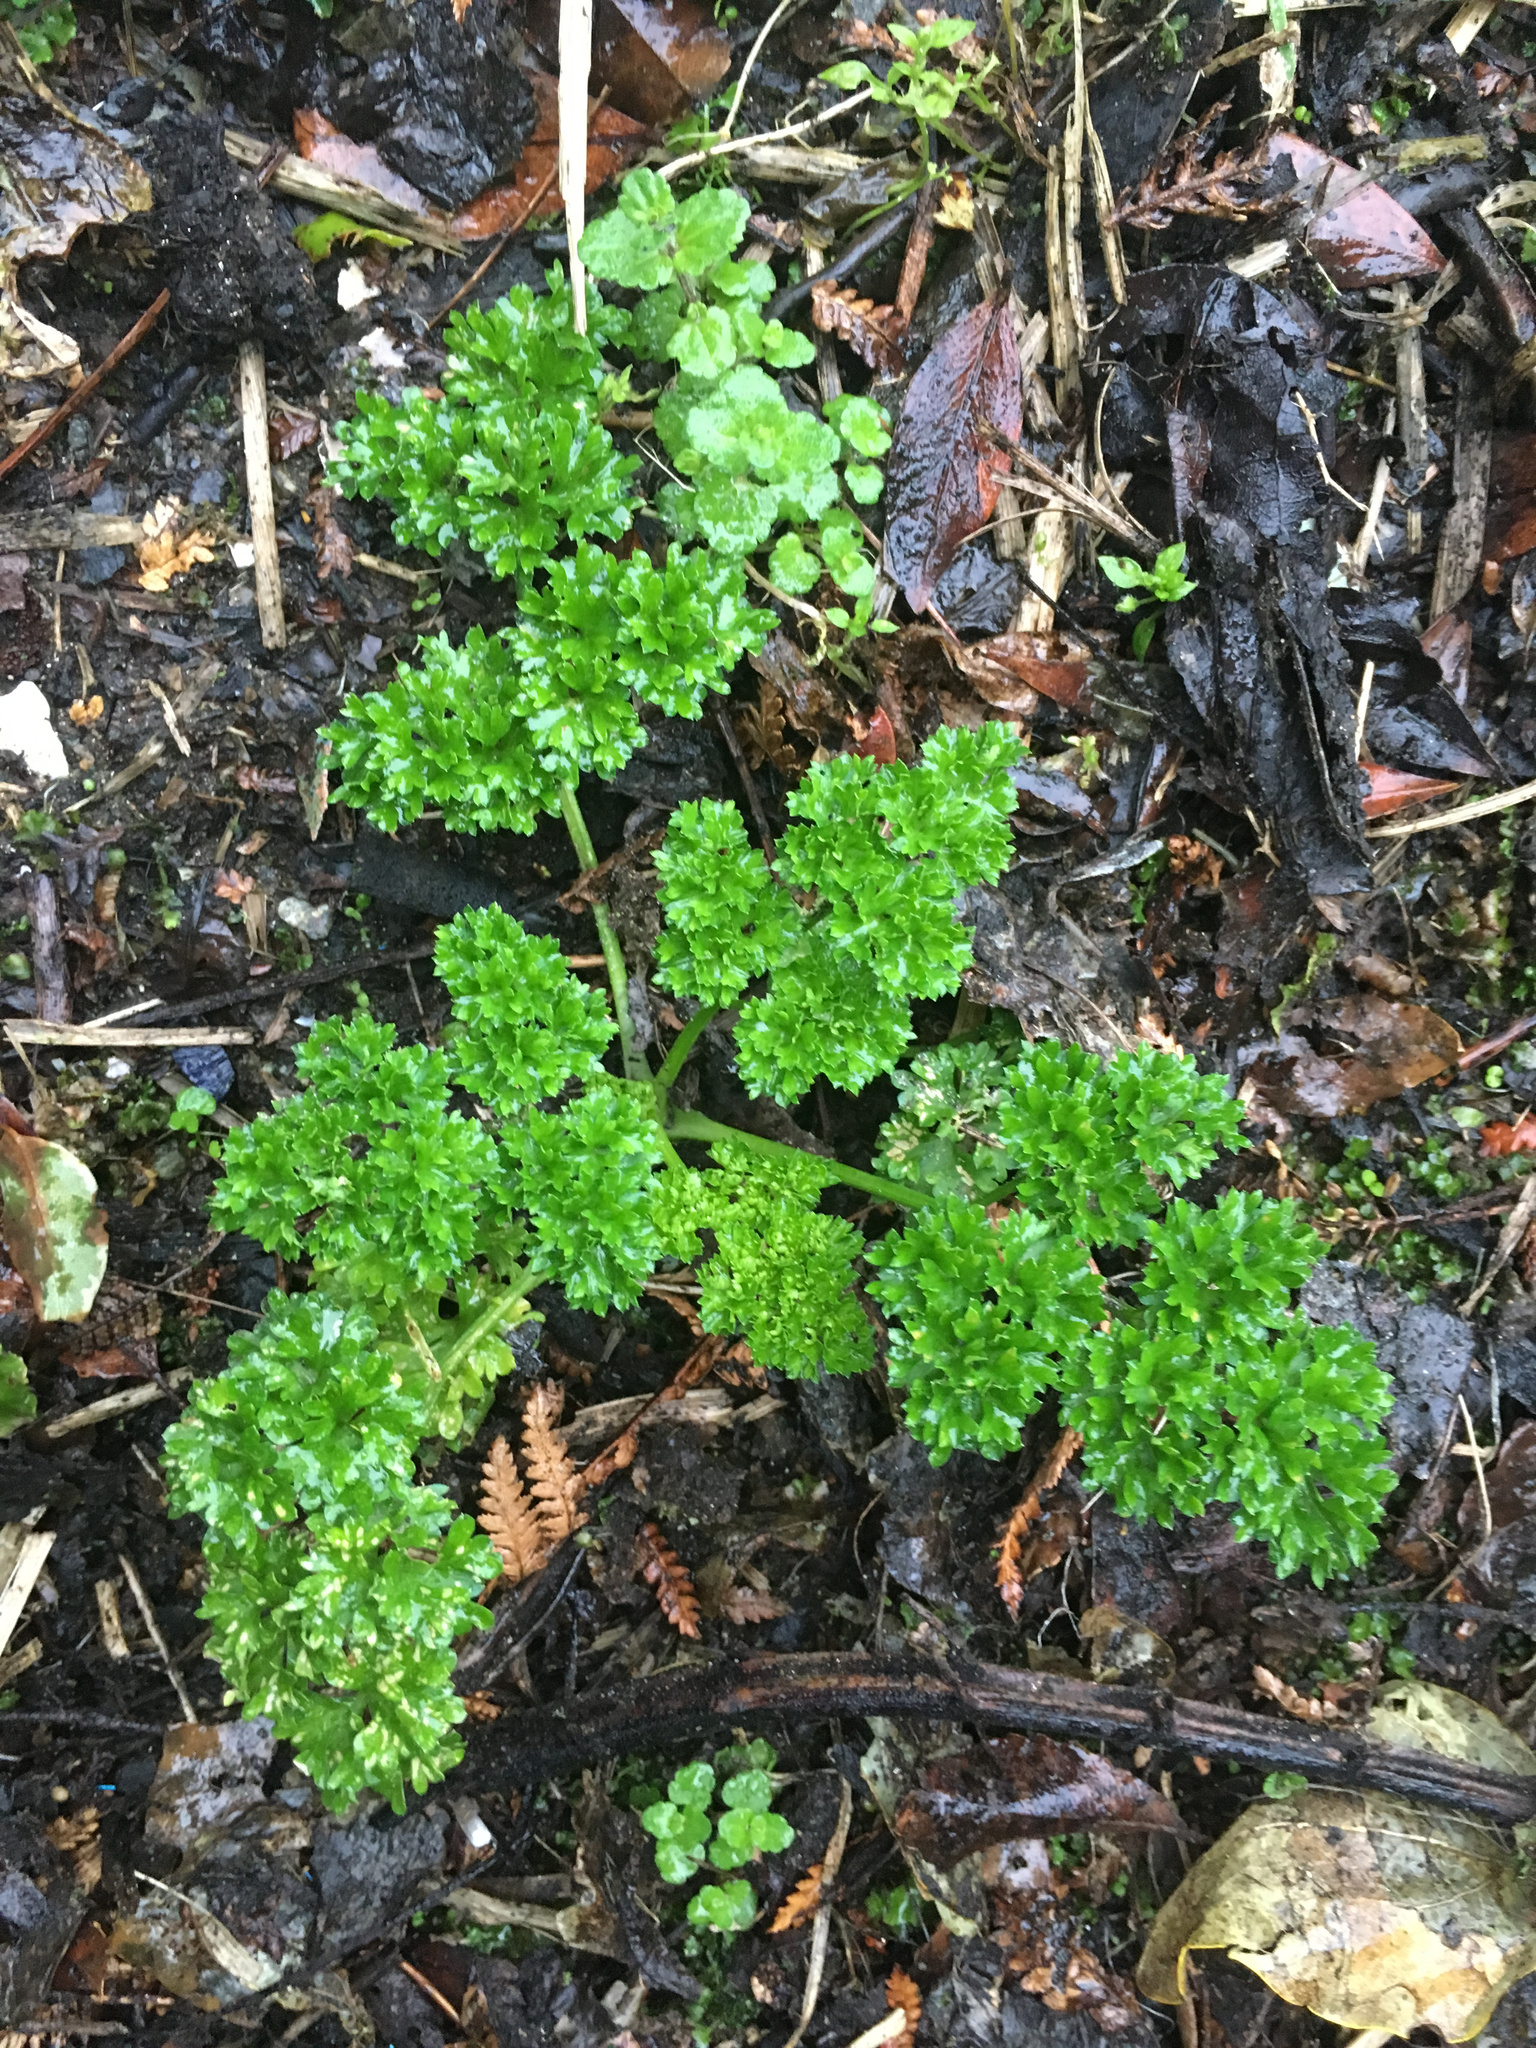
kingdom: Plantae
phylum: Tracheophyta
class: Magnoliopsida
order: Apiales
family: Apiaceae
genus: Petroselinum
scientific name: Petroselinum crispum
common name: Parsley
